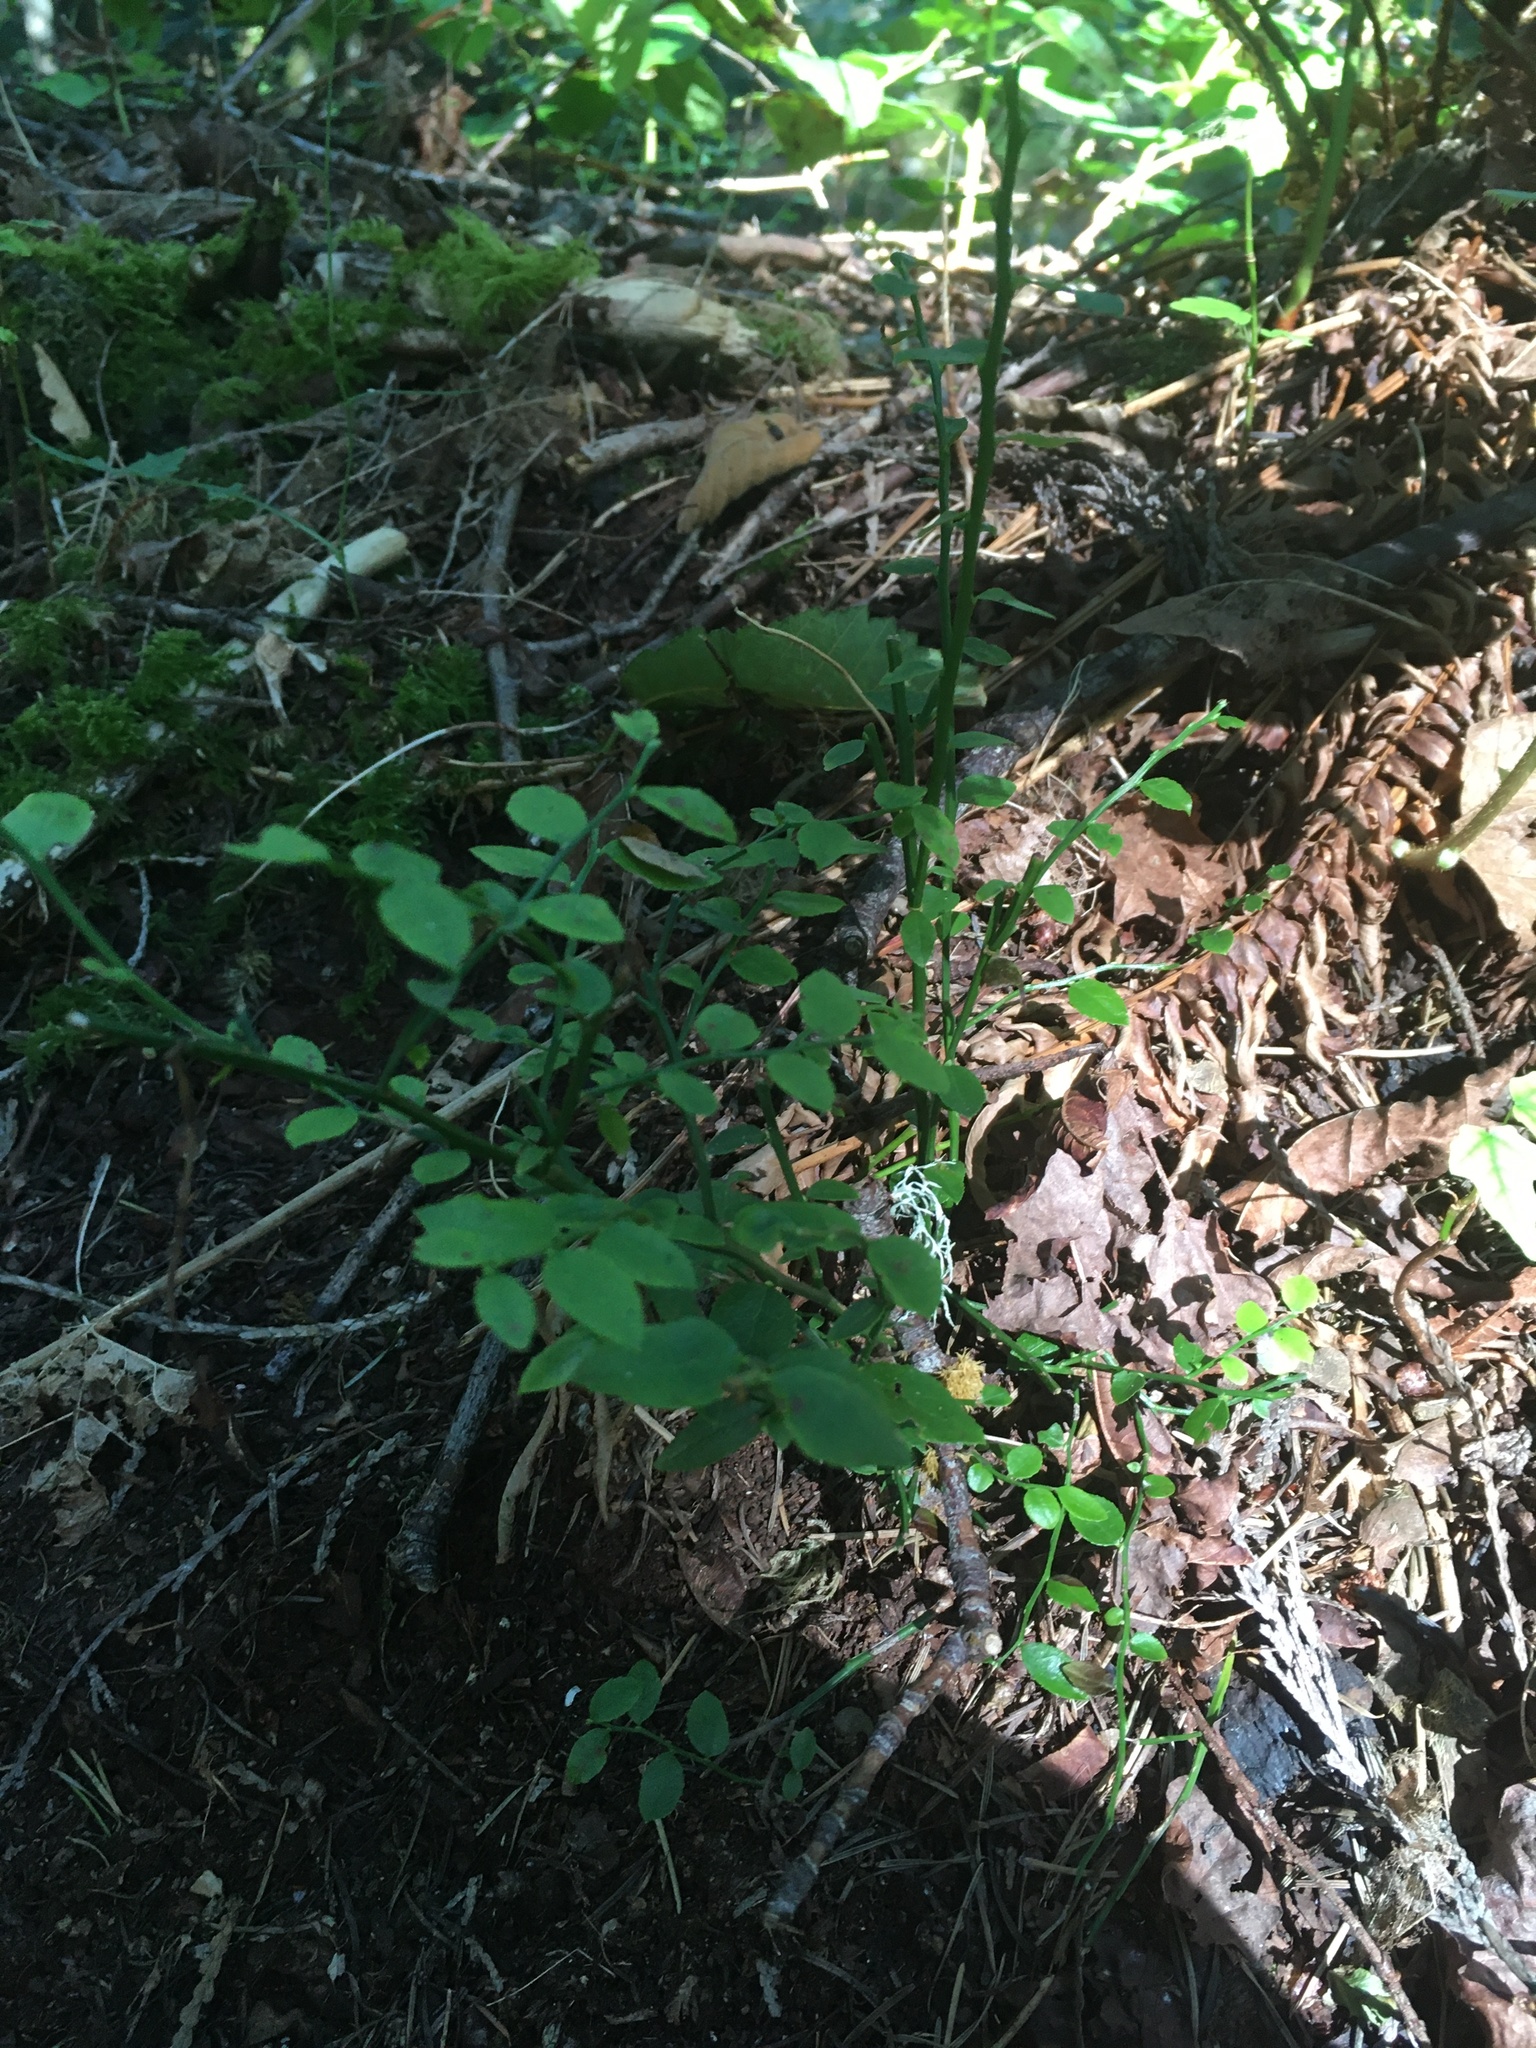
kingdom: Plantae
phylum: Tracheophyta
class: Magnoliopsida
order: Ericales
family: Ericaceae
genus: Vaccinium
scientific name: Vaccinium parvifolium
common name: Red-huckleberry
